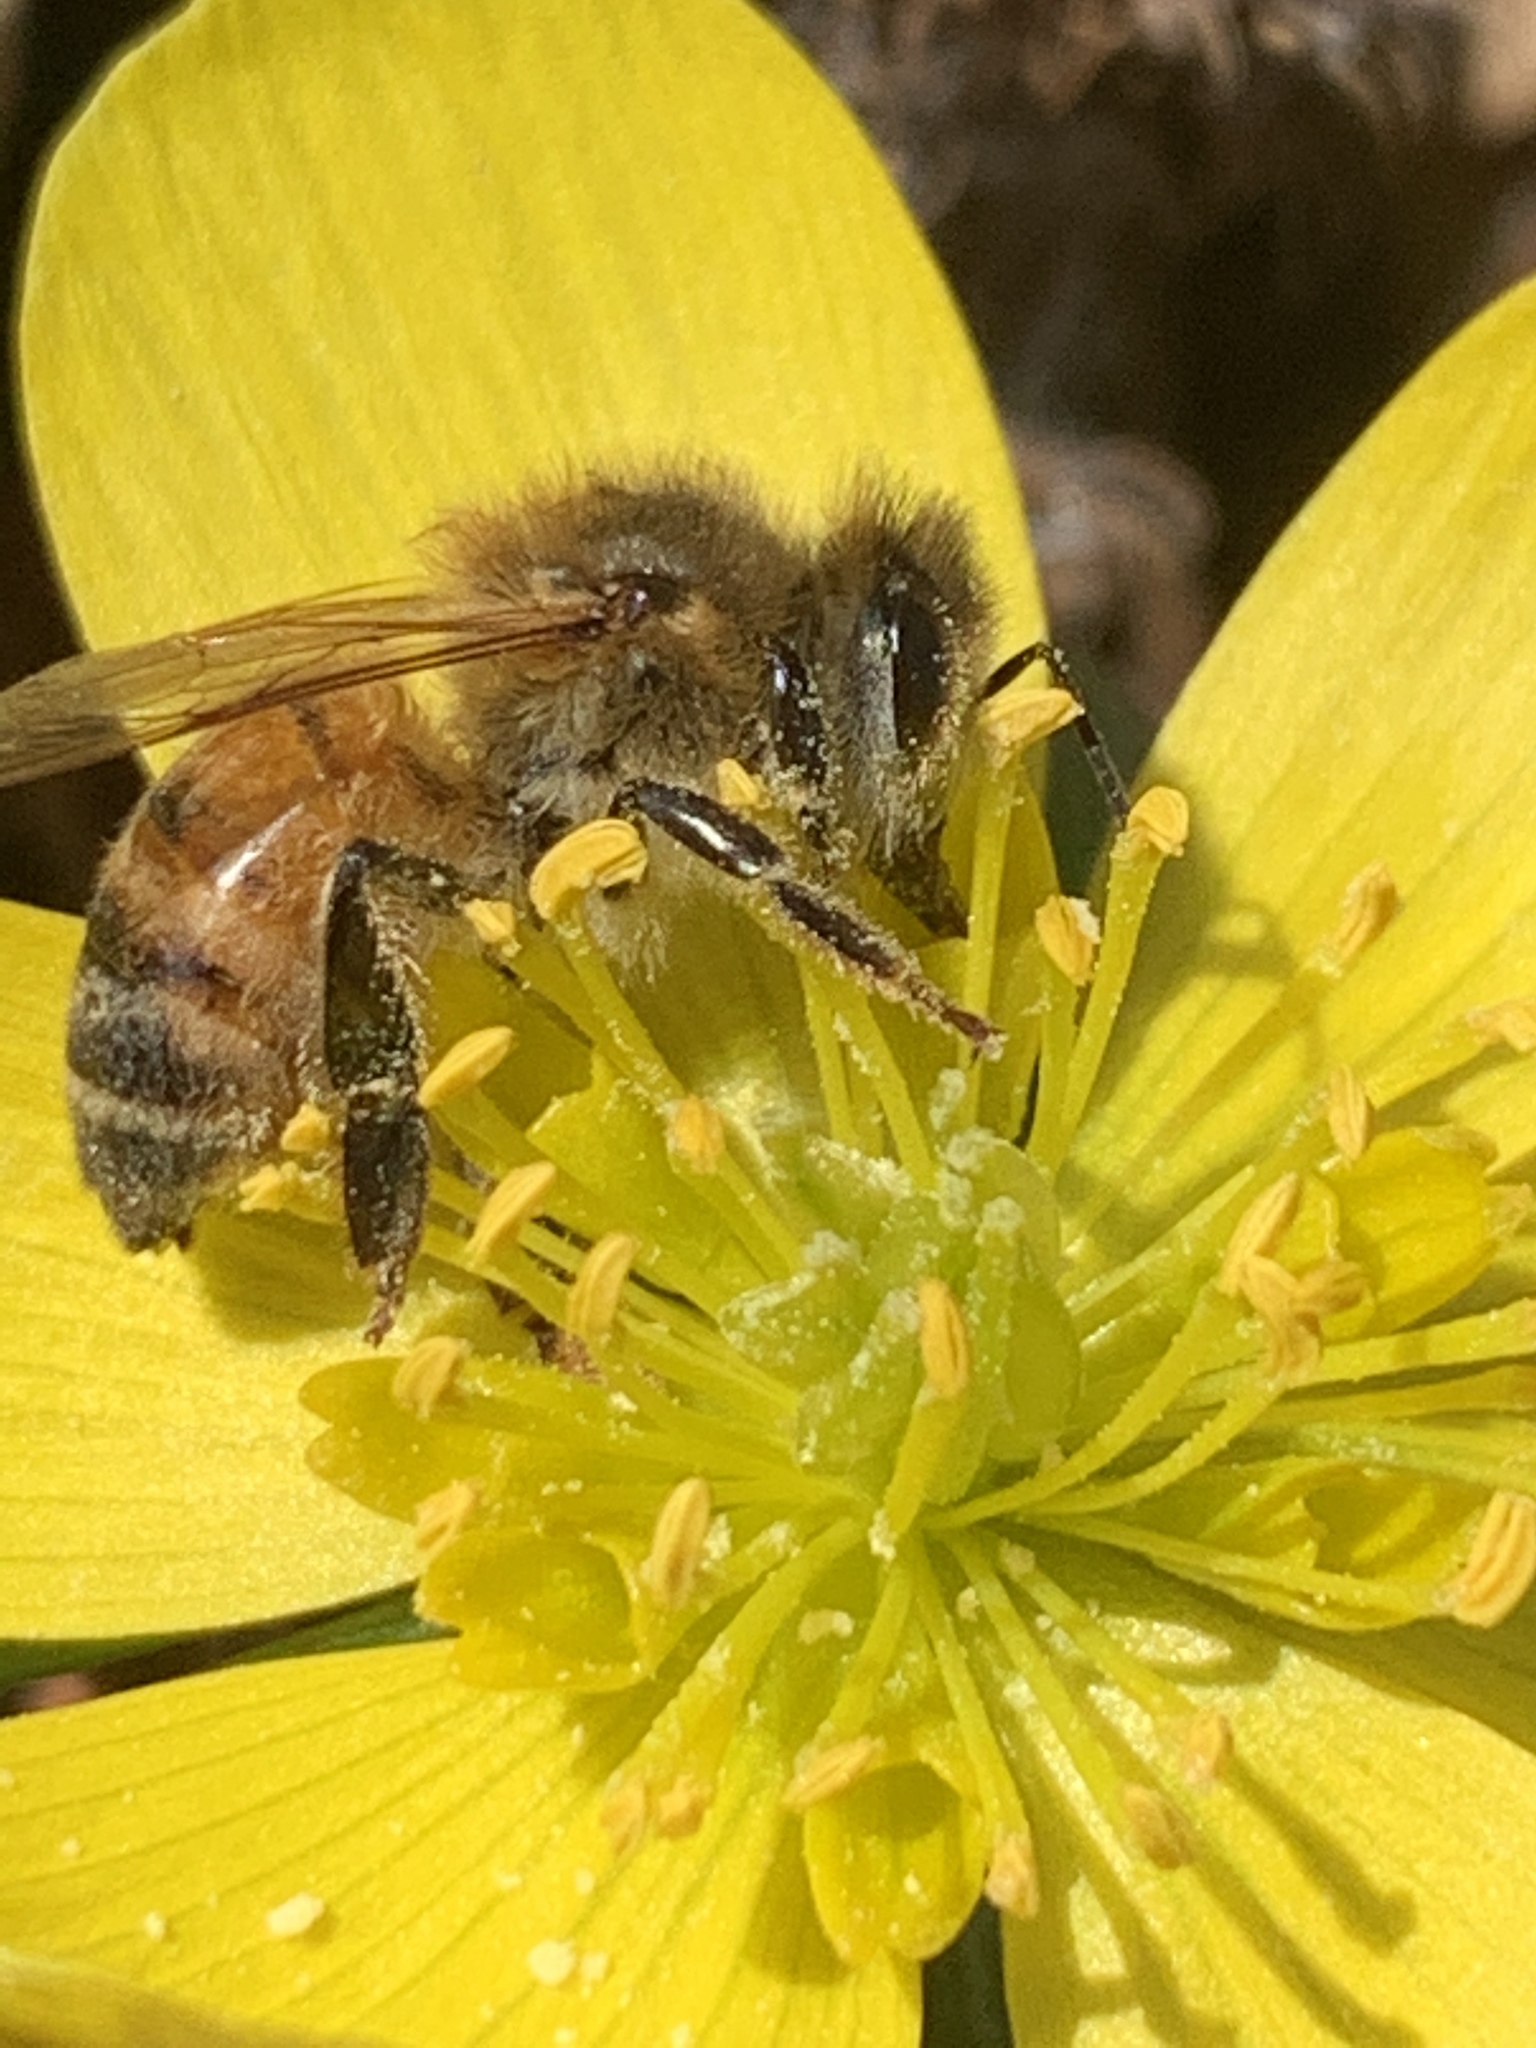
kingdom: Animalia
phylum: Arthropoda
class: Insecta
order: Hymenoptera
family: Apidae
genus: Apis
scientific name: Apis mellifera
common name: Honey bee
